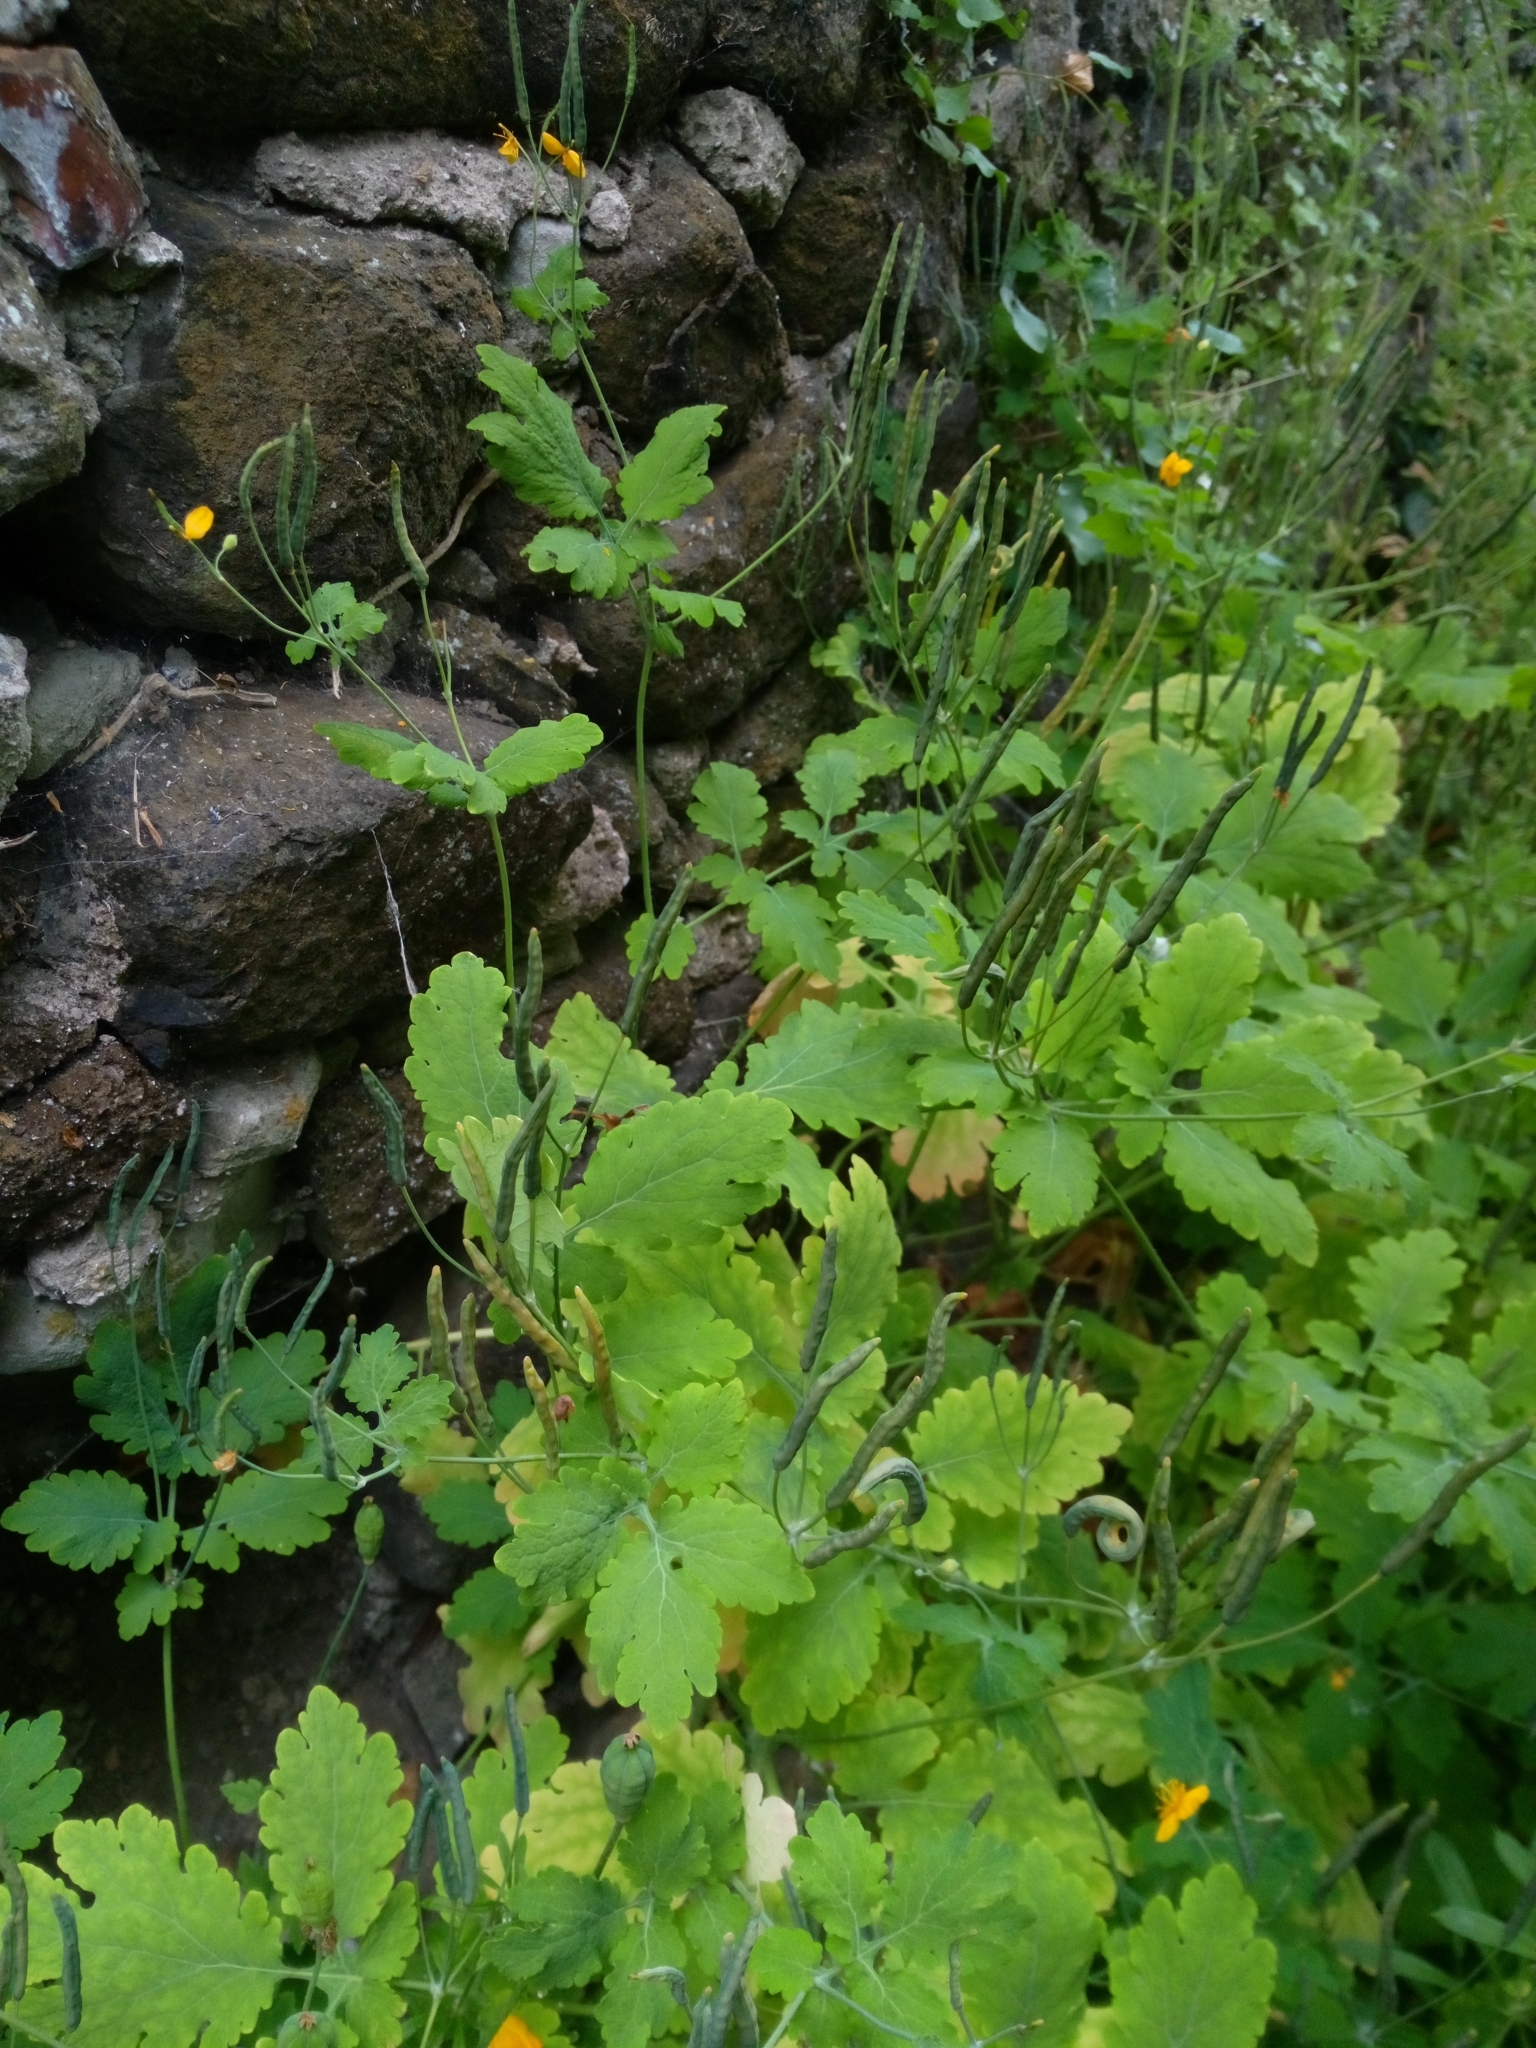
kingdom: Plantae
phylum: Tracheophyta
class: Magnoliopsida
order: Ranunculales
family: Papaveraceae
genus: Chelidonium
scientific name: Chelidonium majus
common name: Greater celandine
